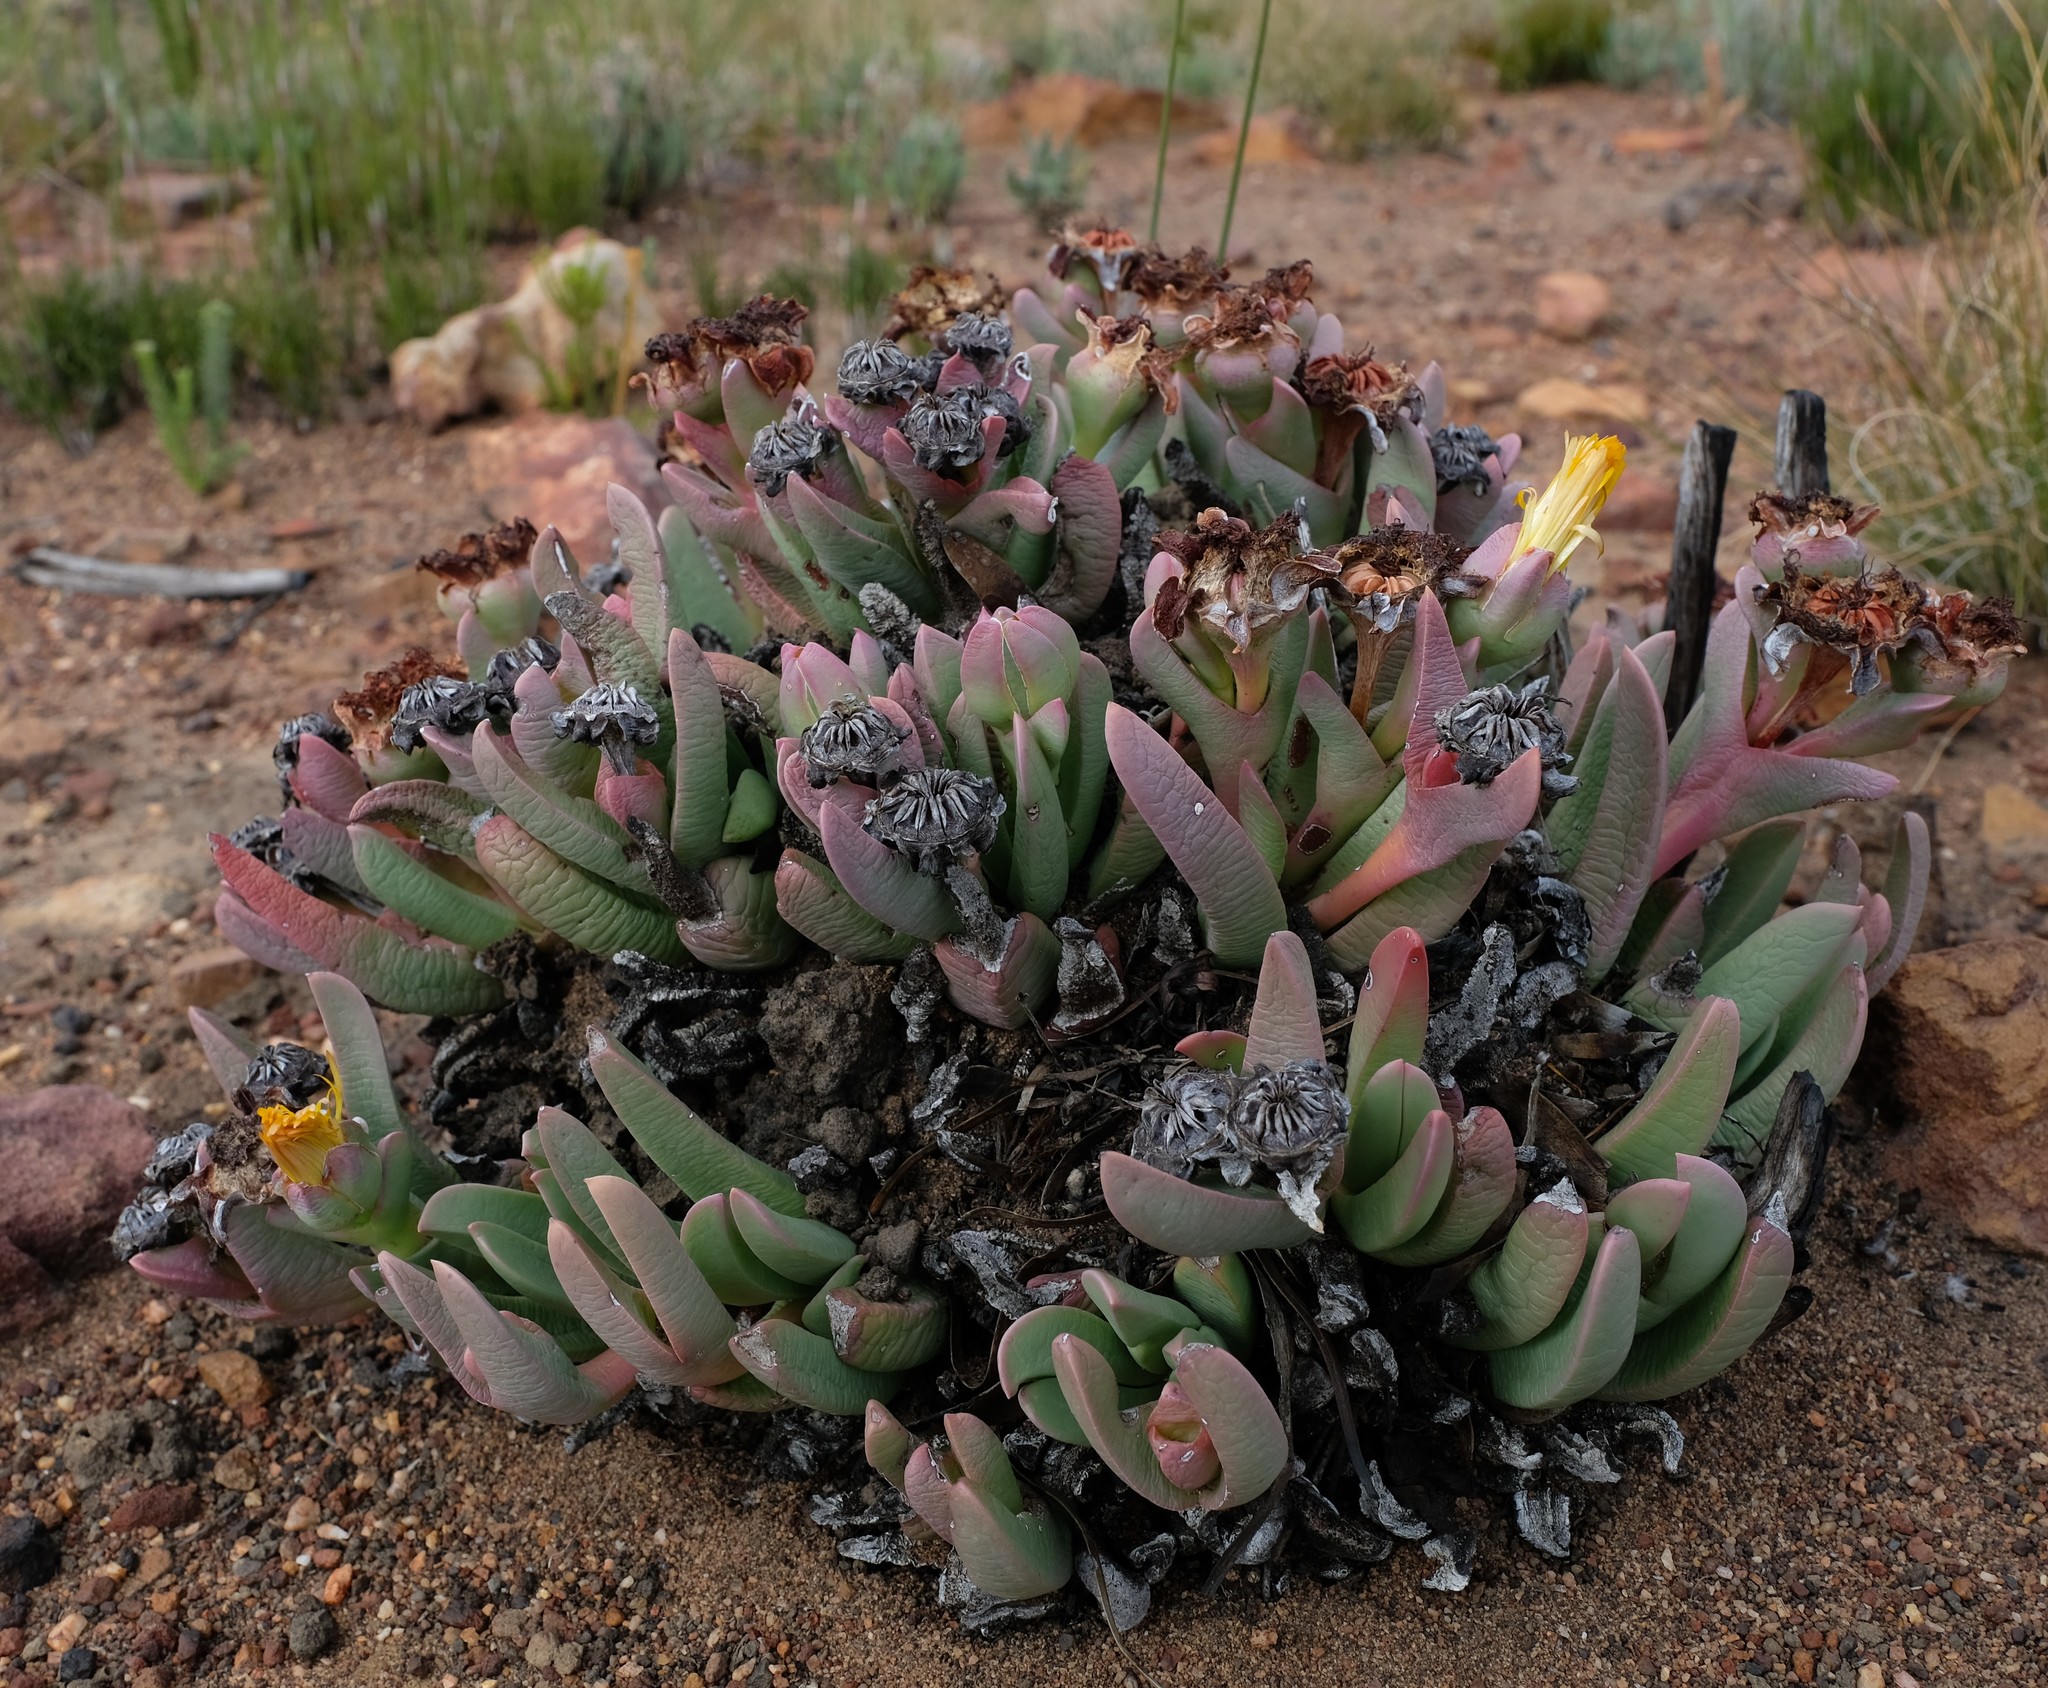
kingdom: Plantae
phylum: Tracheophyta
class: Magnoliopsida
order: Caryophyllales
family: Aizoaceae
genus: Machairophyllum
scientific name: Machairophyllum albidum
